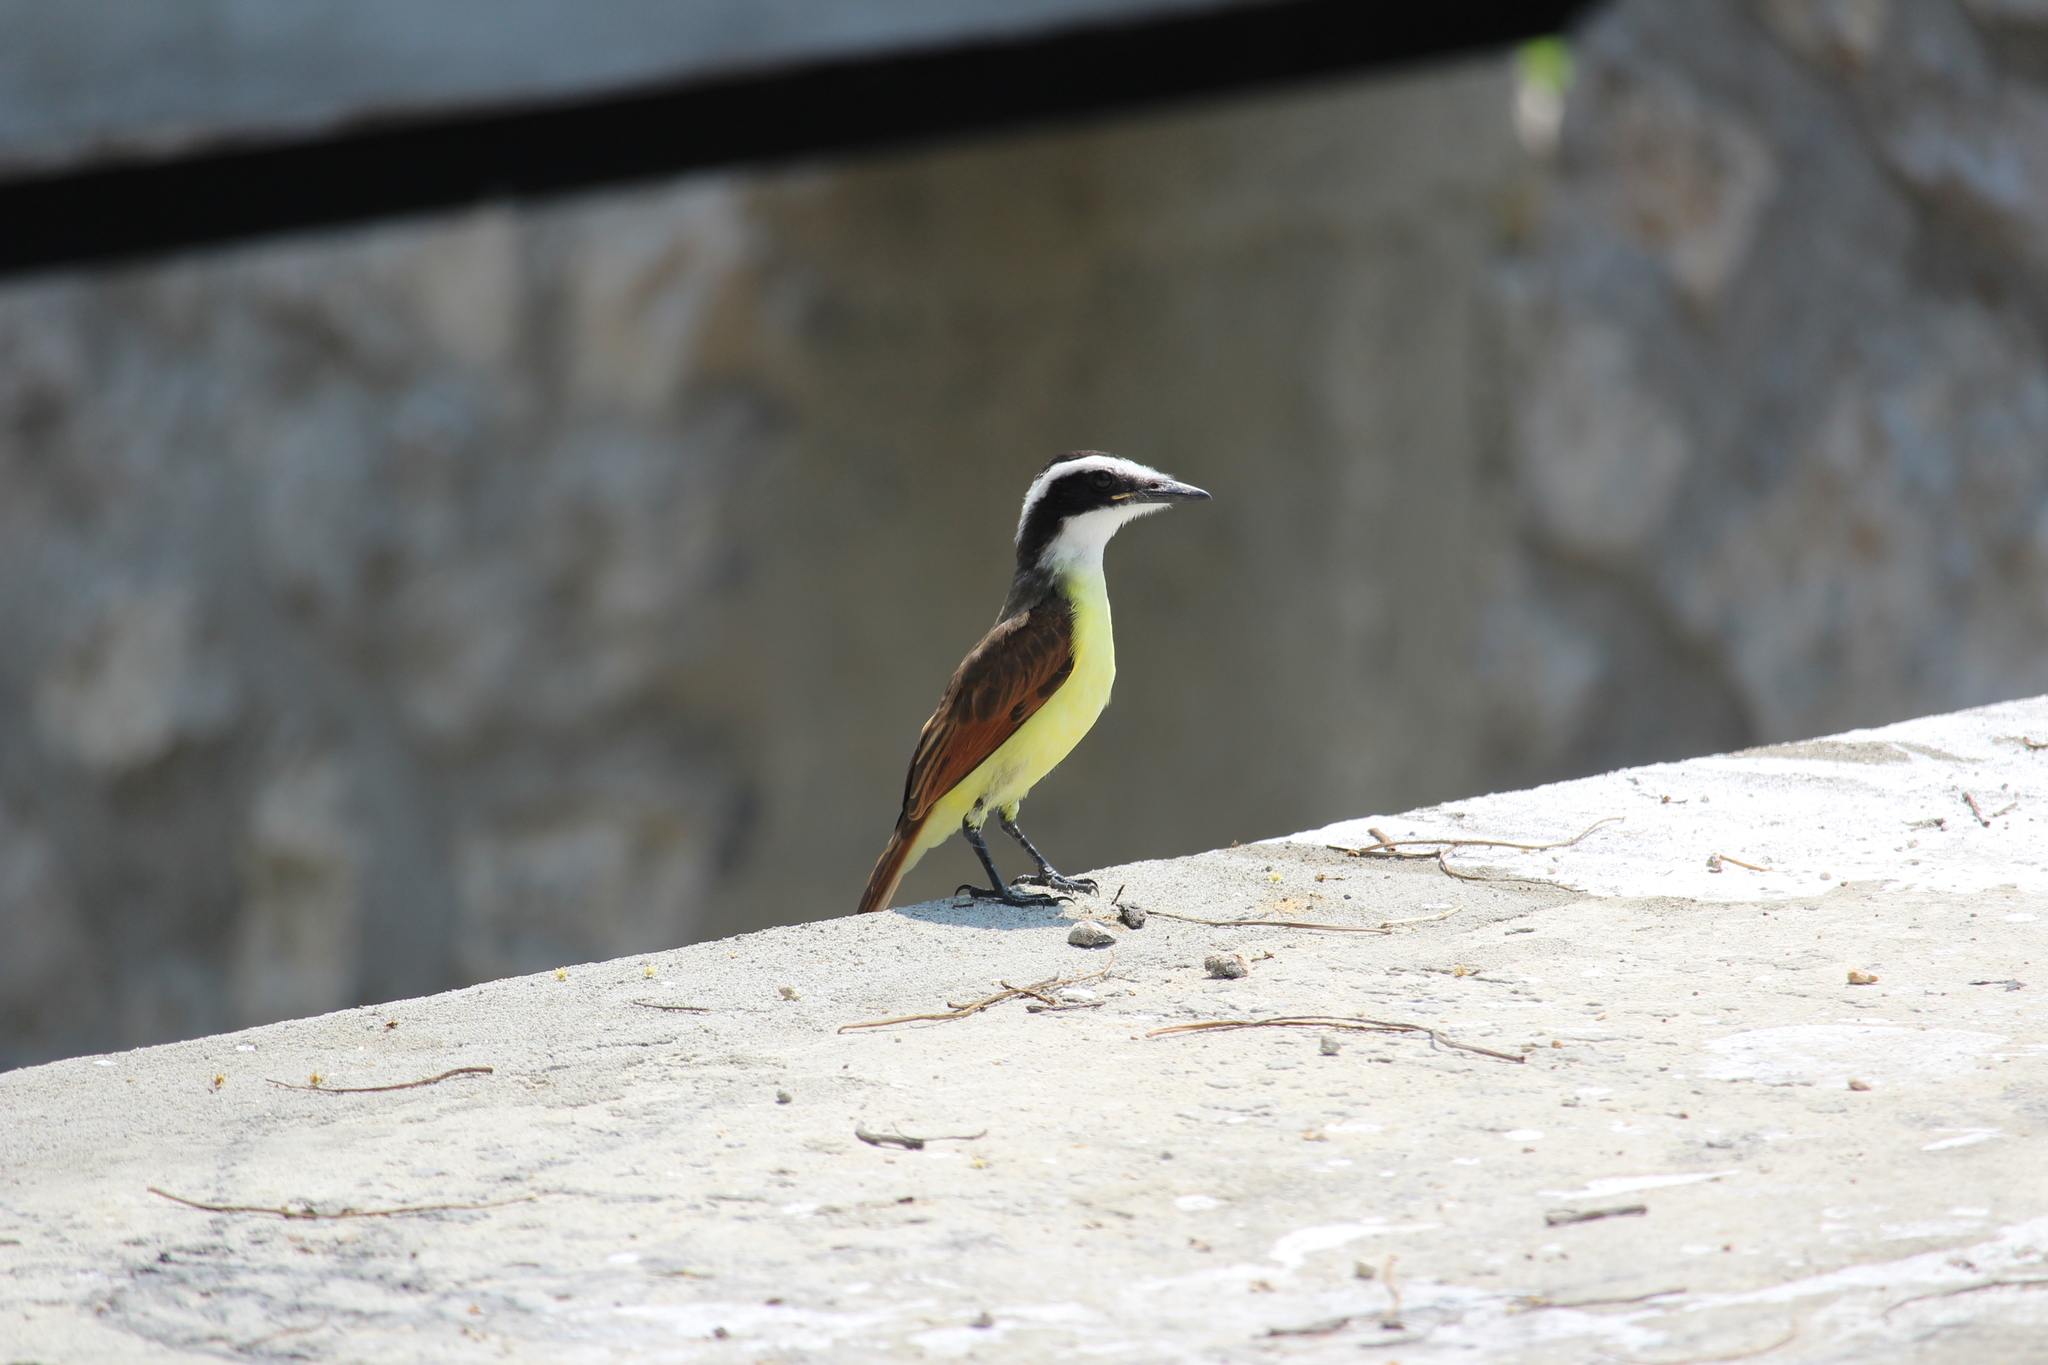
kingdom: Animalia
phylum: Chordata
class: Aves
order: Passeriformes
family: Tyrannidae
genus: Pitangus
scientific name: Pitangus sulphuratus
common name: Great kiskadee
